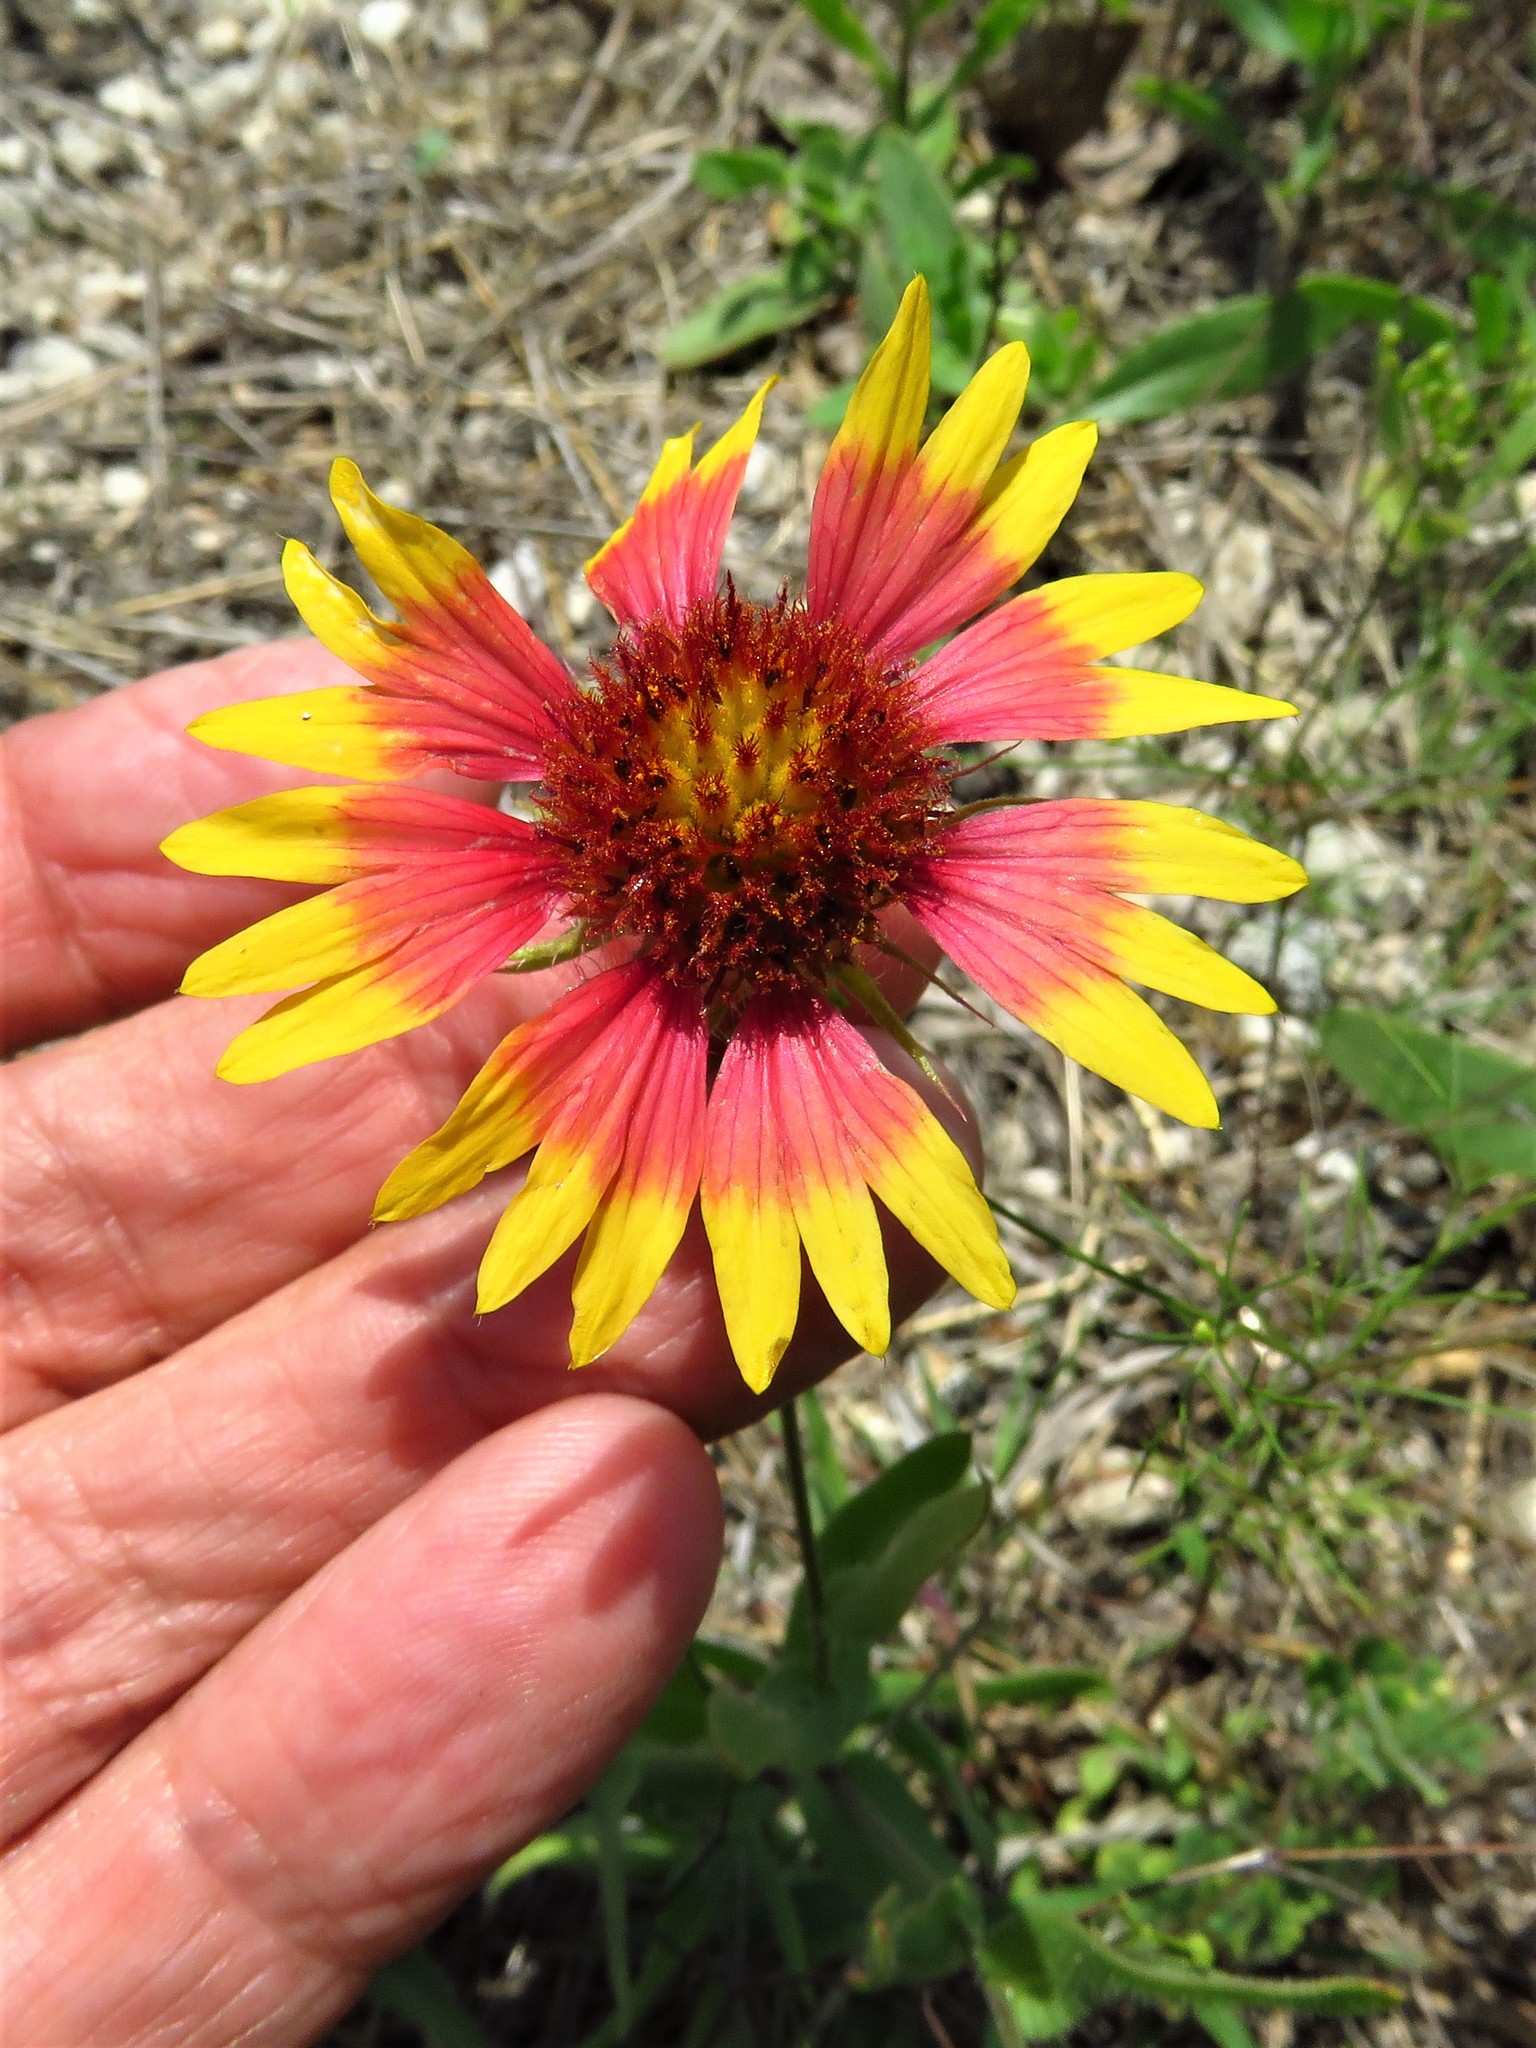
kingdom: Plantae
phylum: Tracheophyta
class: Magnoliopsida
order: Asterales
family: Asteraceae
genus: Gaillardia
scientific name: Gaillardia pulchella
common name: Firewheel
